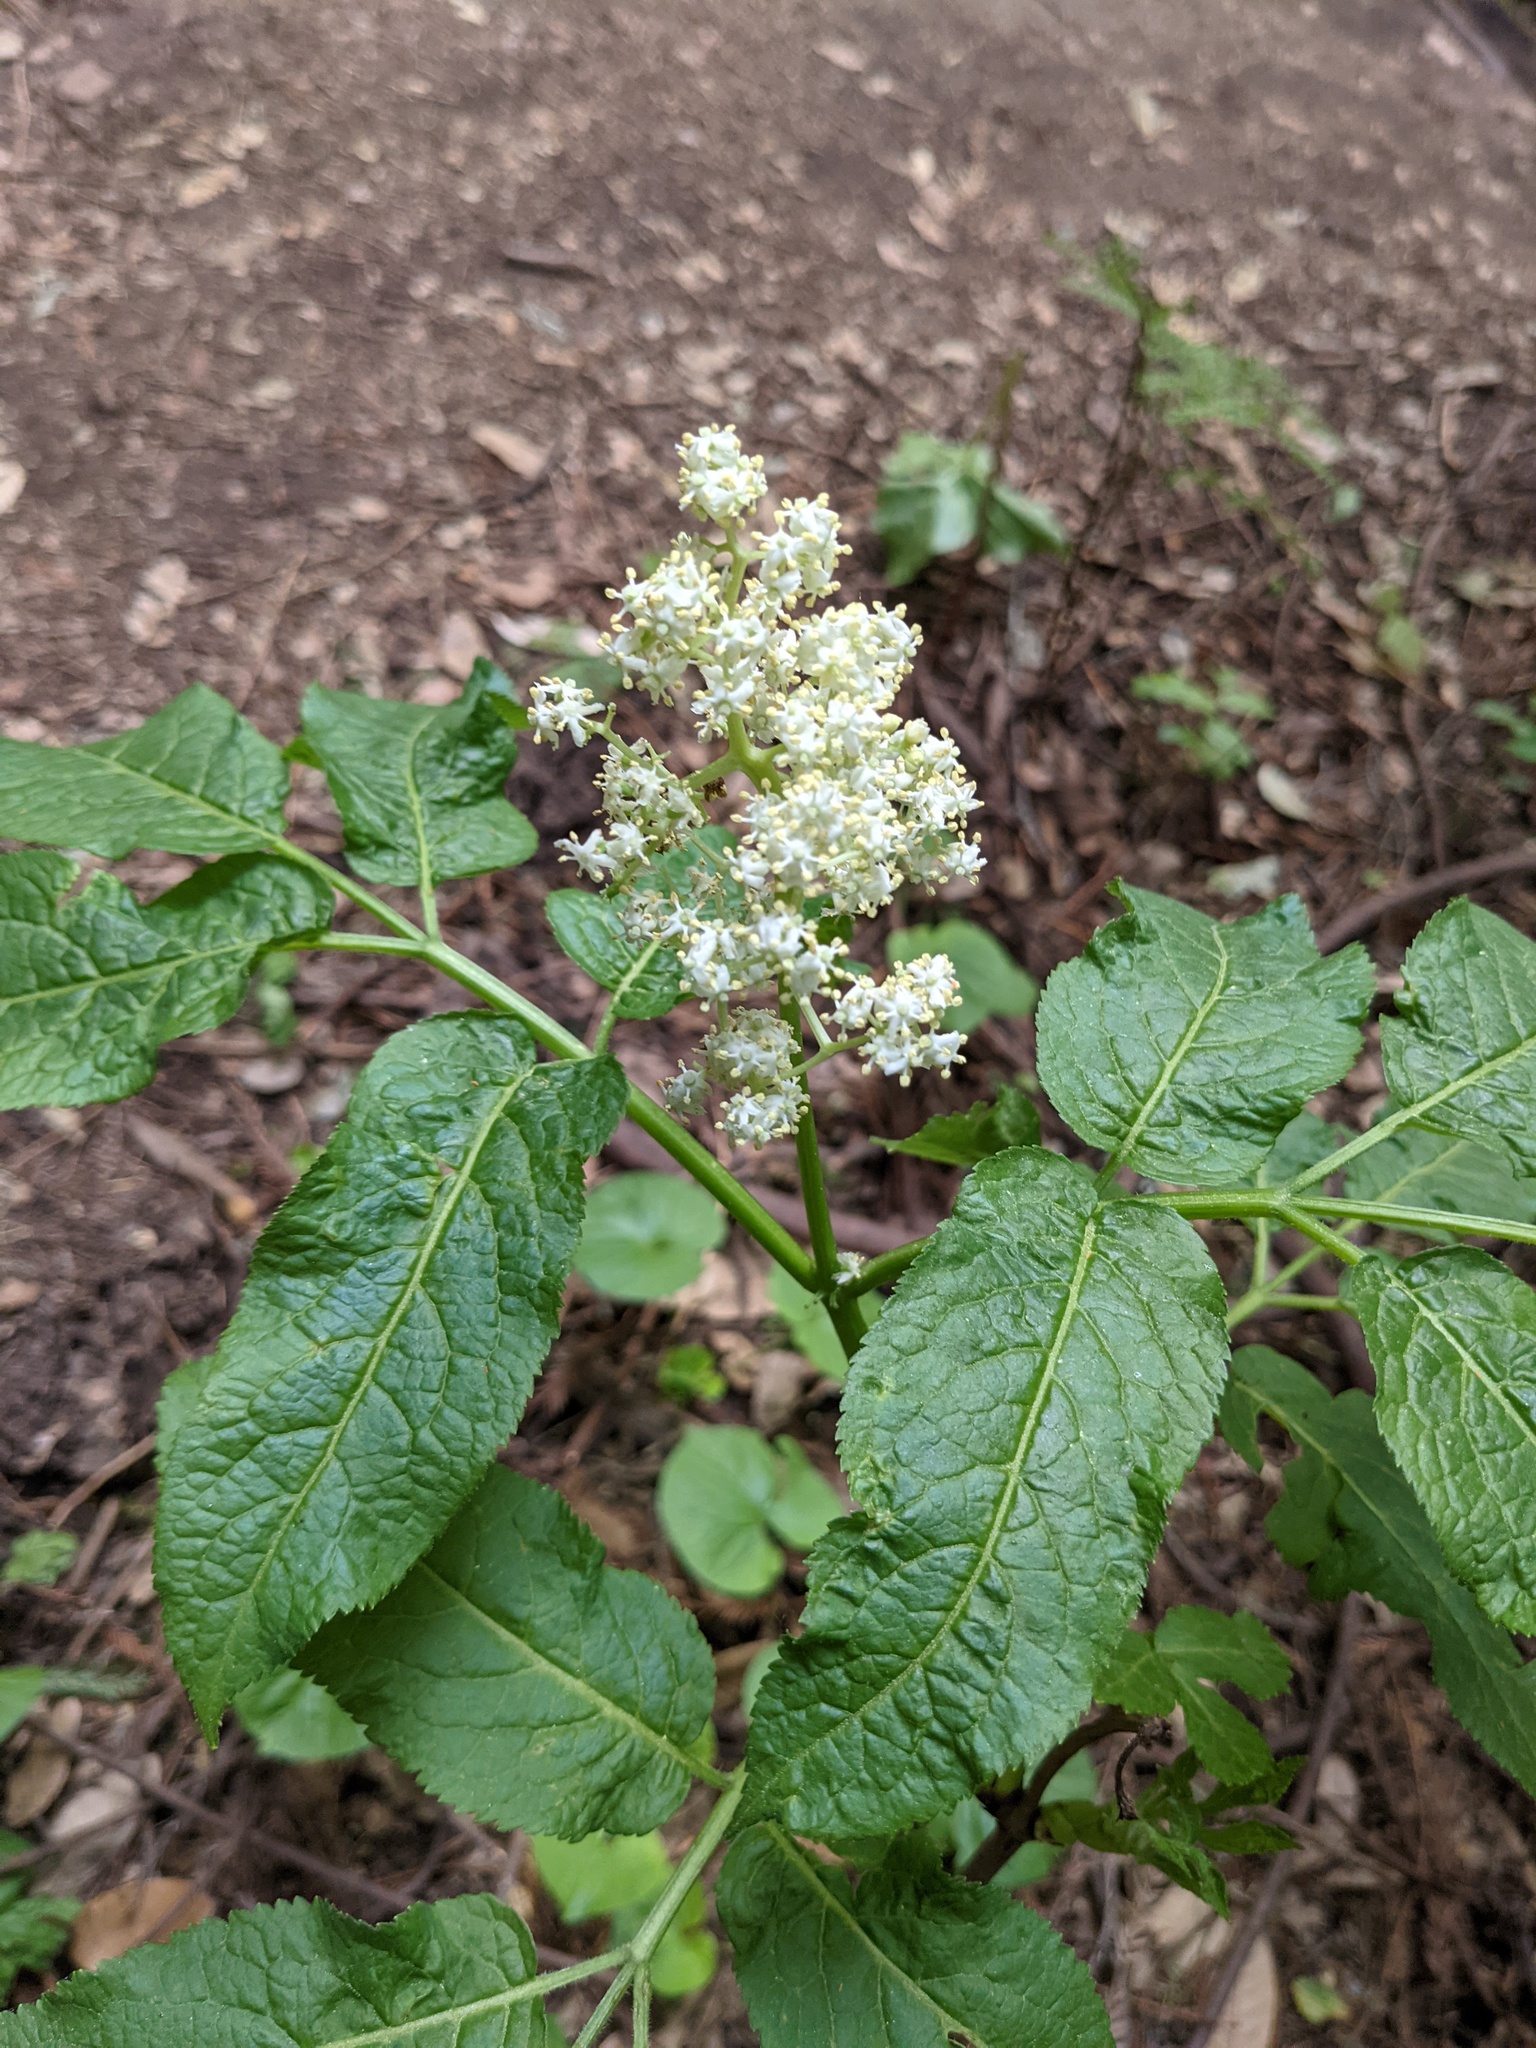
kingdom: Plantae
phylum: Tracheophyta
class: Magnoliopsida
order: Dipsacales
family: Viburnaceae
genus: Sambucus
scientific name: Sambucus racemosa
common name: Red-berried elder
